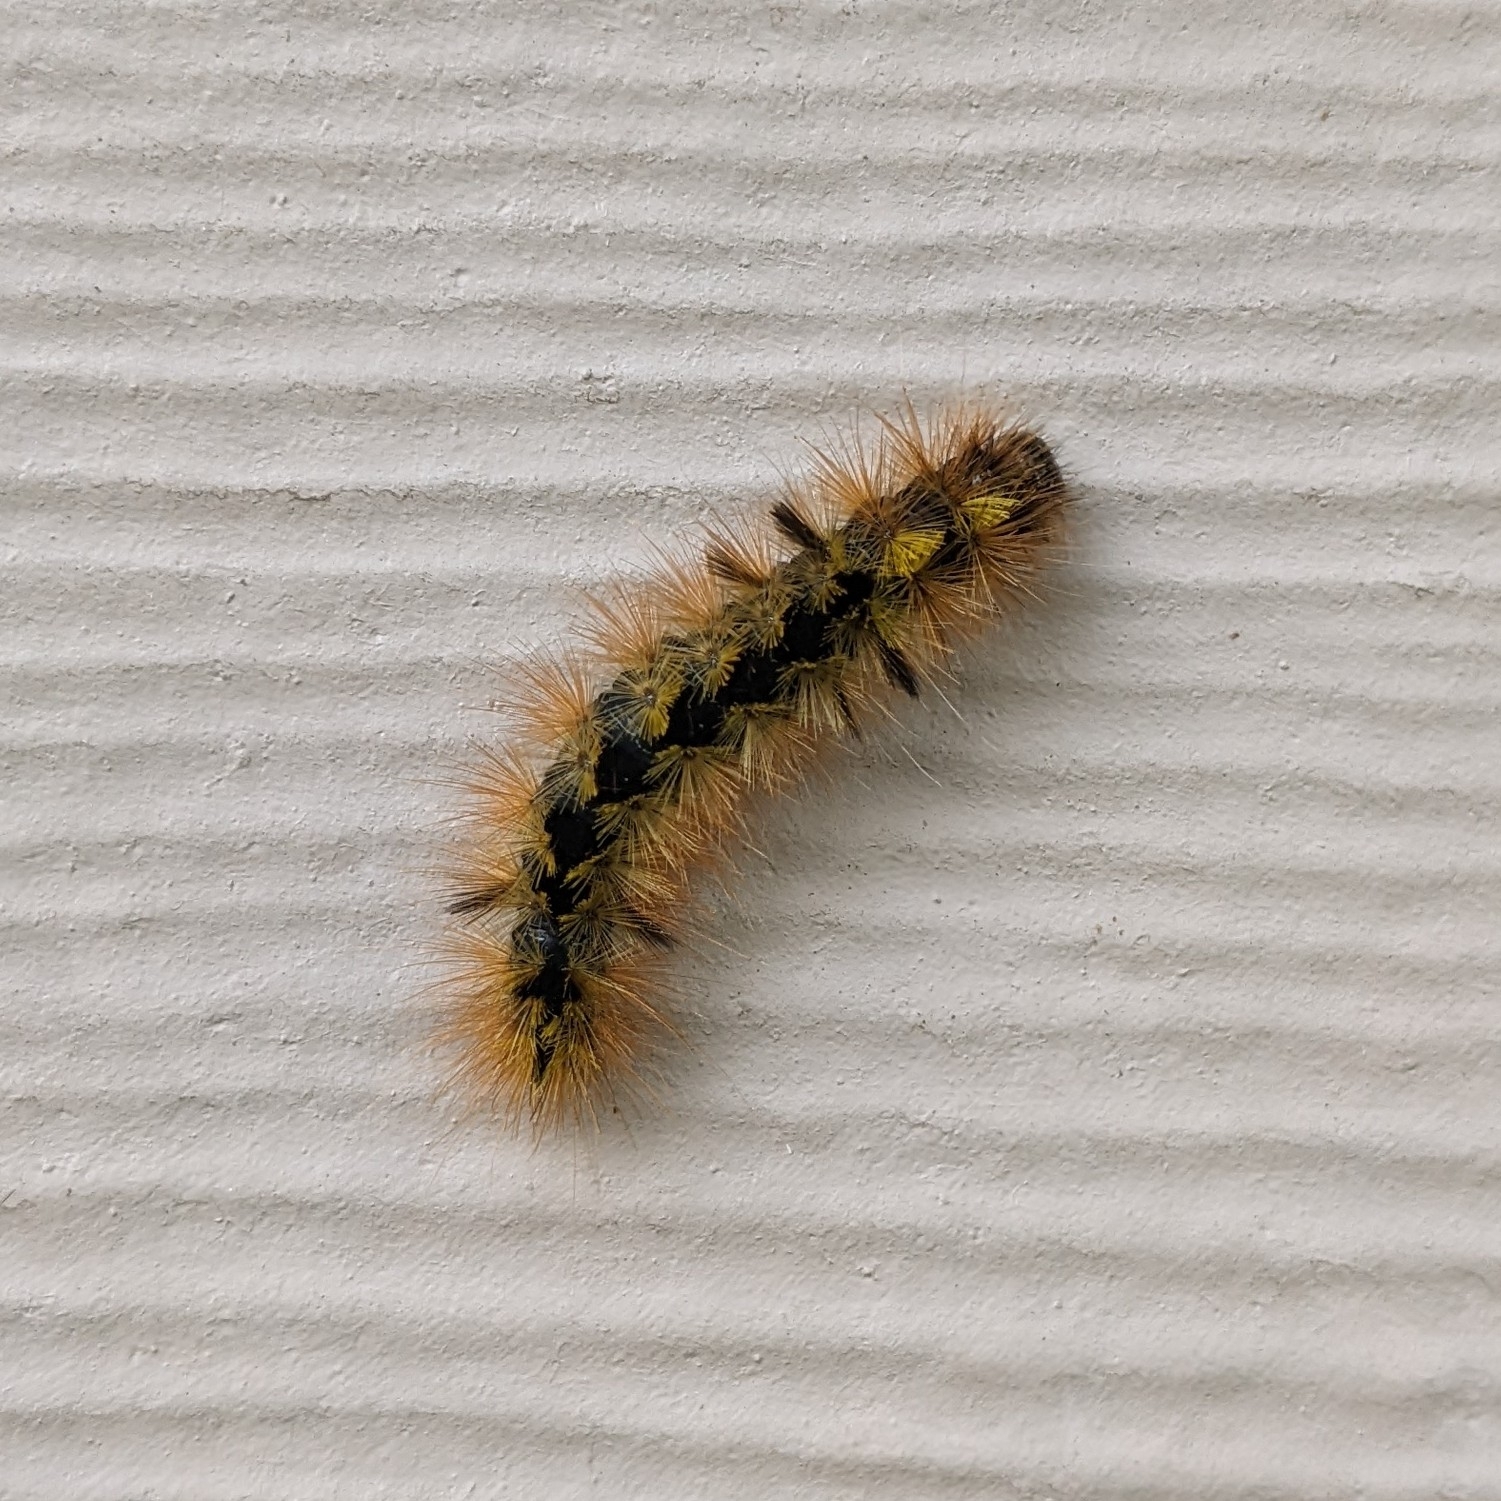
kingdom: Animalia
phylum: Arthropoda
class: Insecta
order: Lepidoptera
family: Erebidae
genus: Lophocampa
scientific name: Lophocampa argentata
